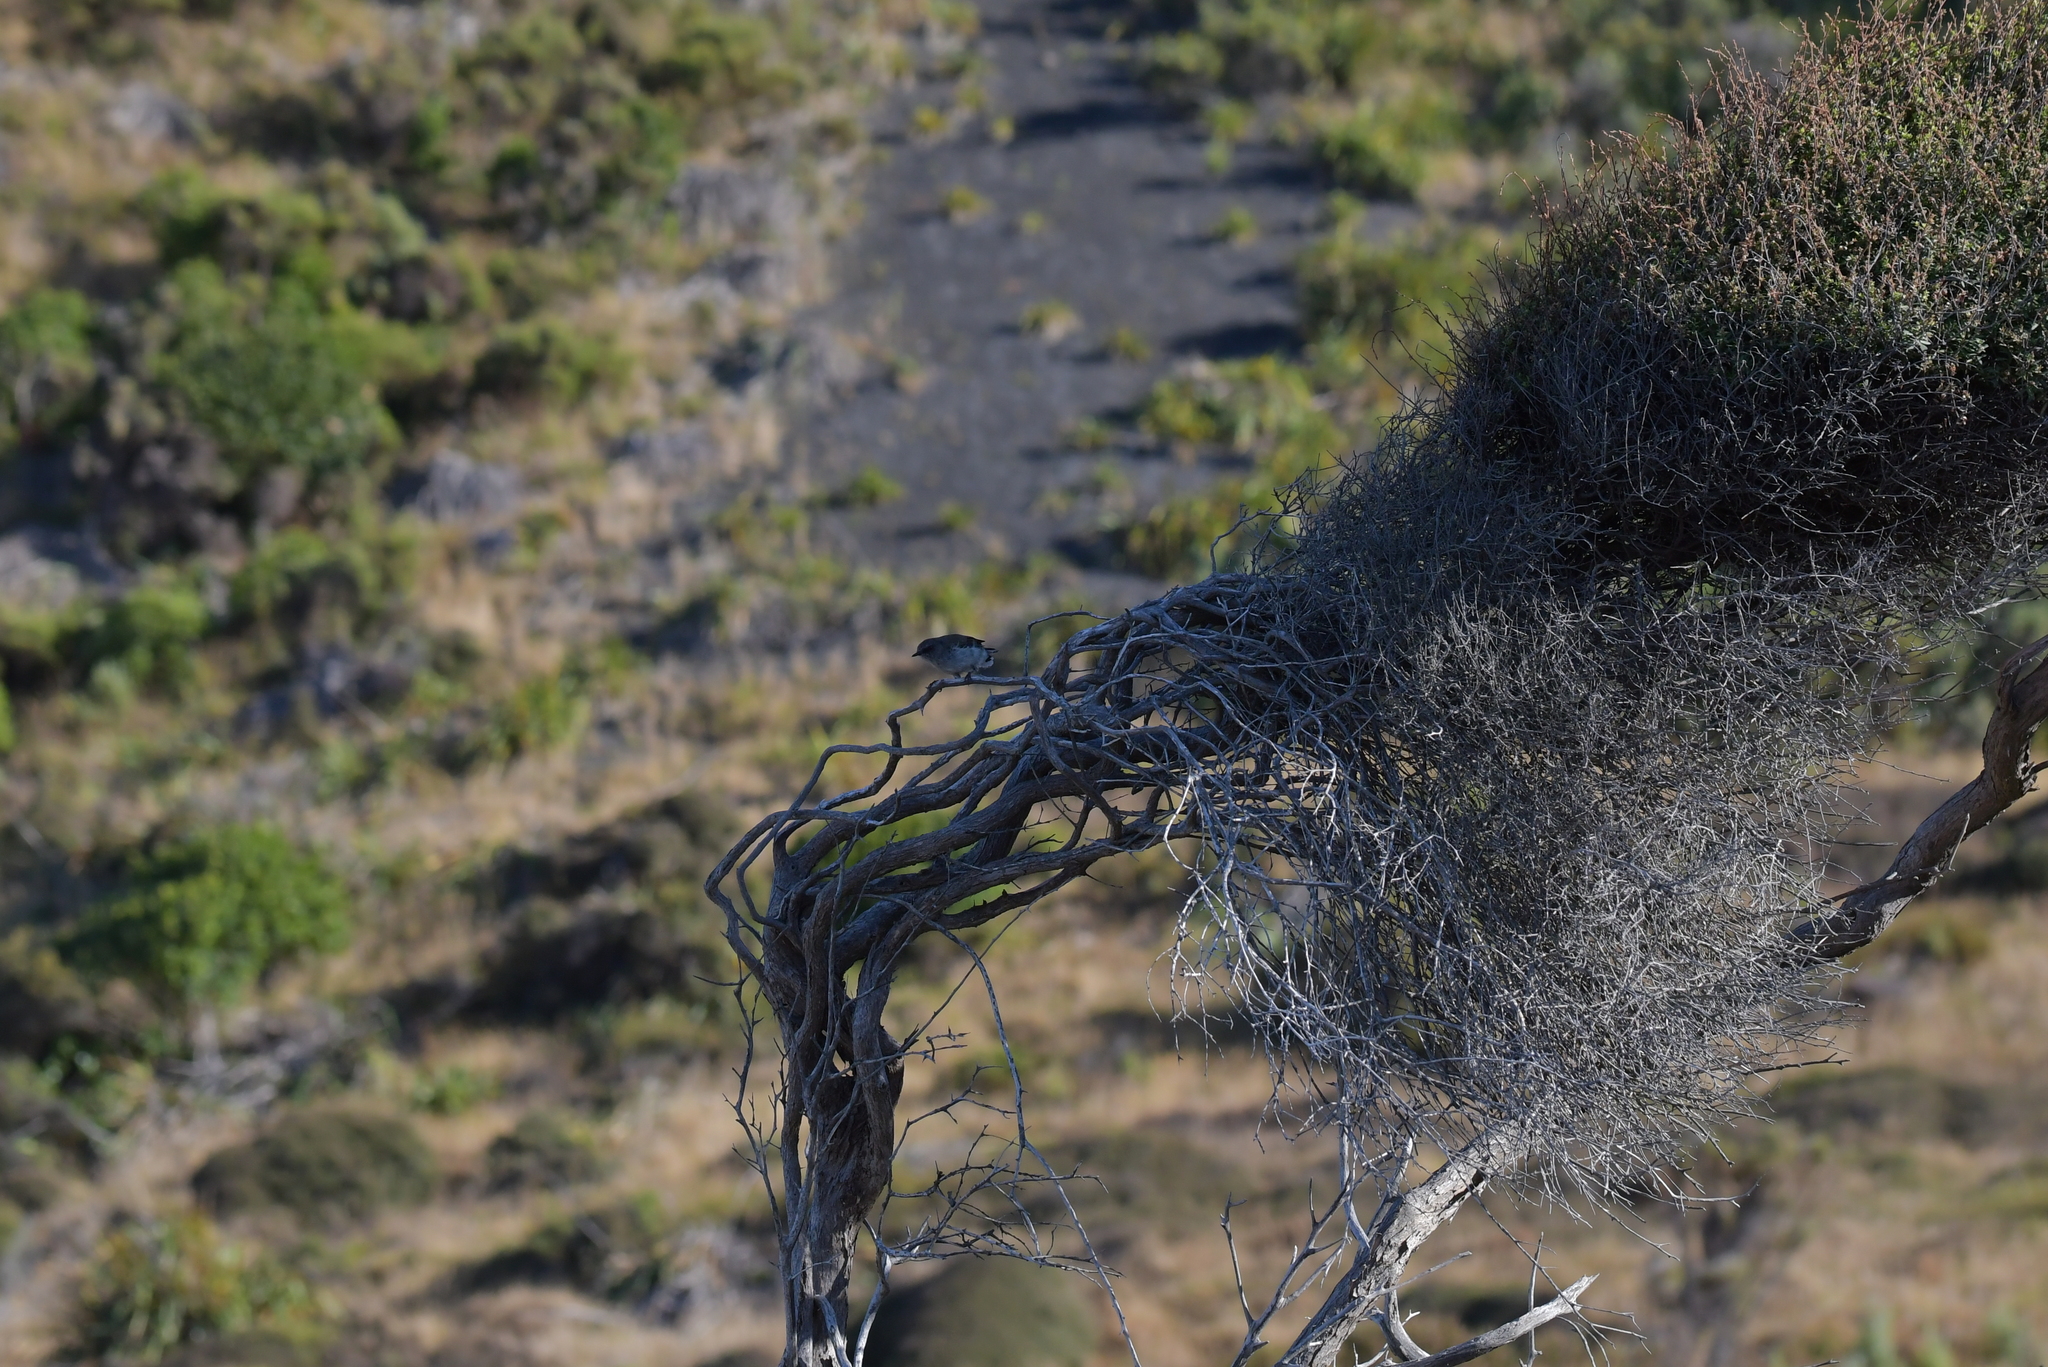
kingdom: Animalia
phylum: Chordata
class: Aves
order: Passeriformes
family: Acanthizidae
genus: Gerygone
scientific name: Gerygone igata
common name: Grey gerygone
